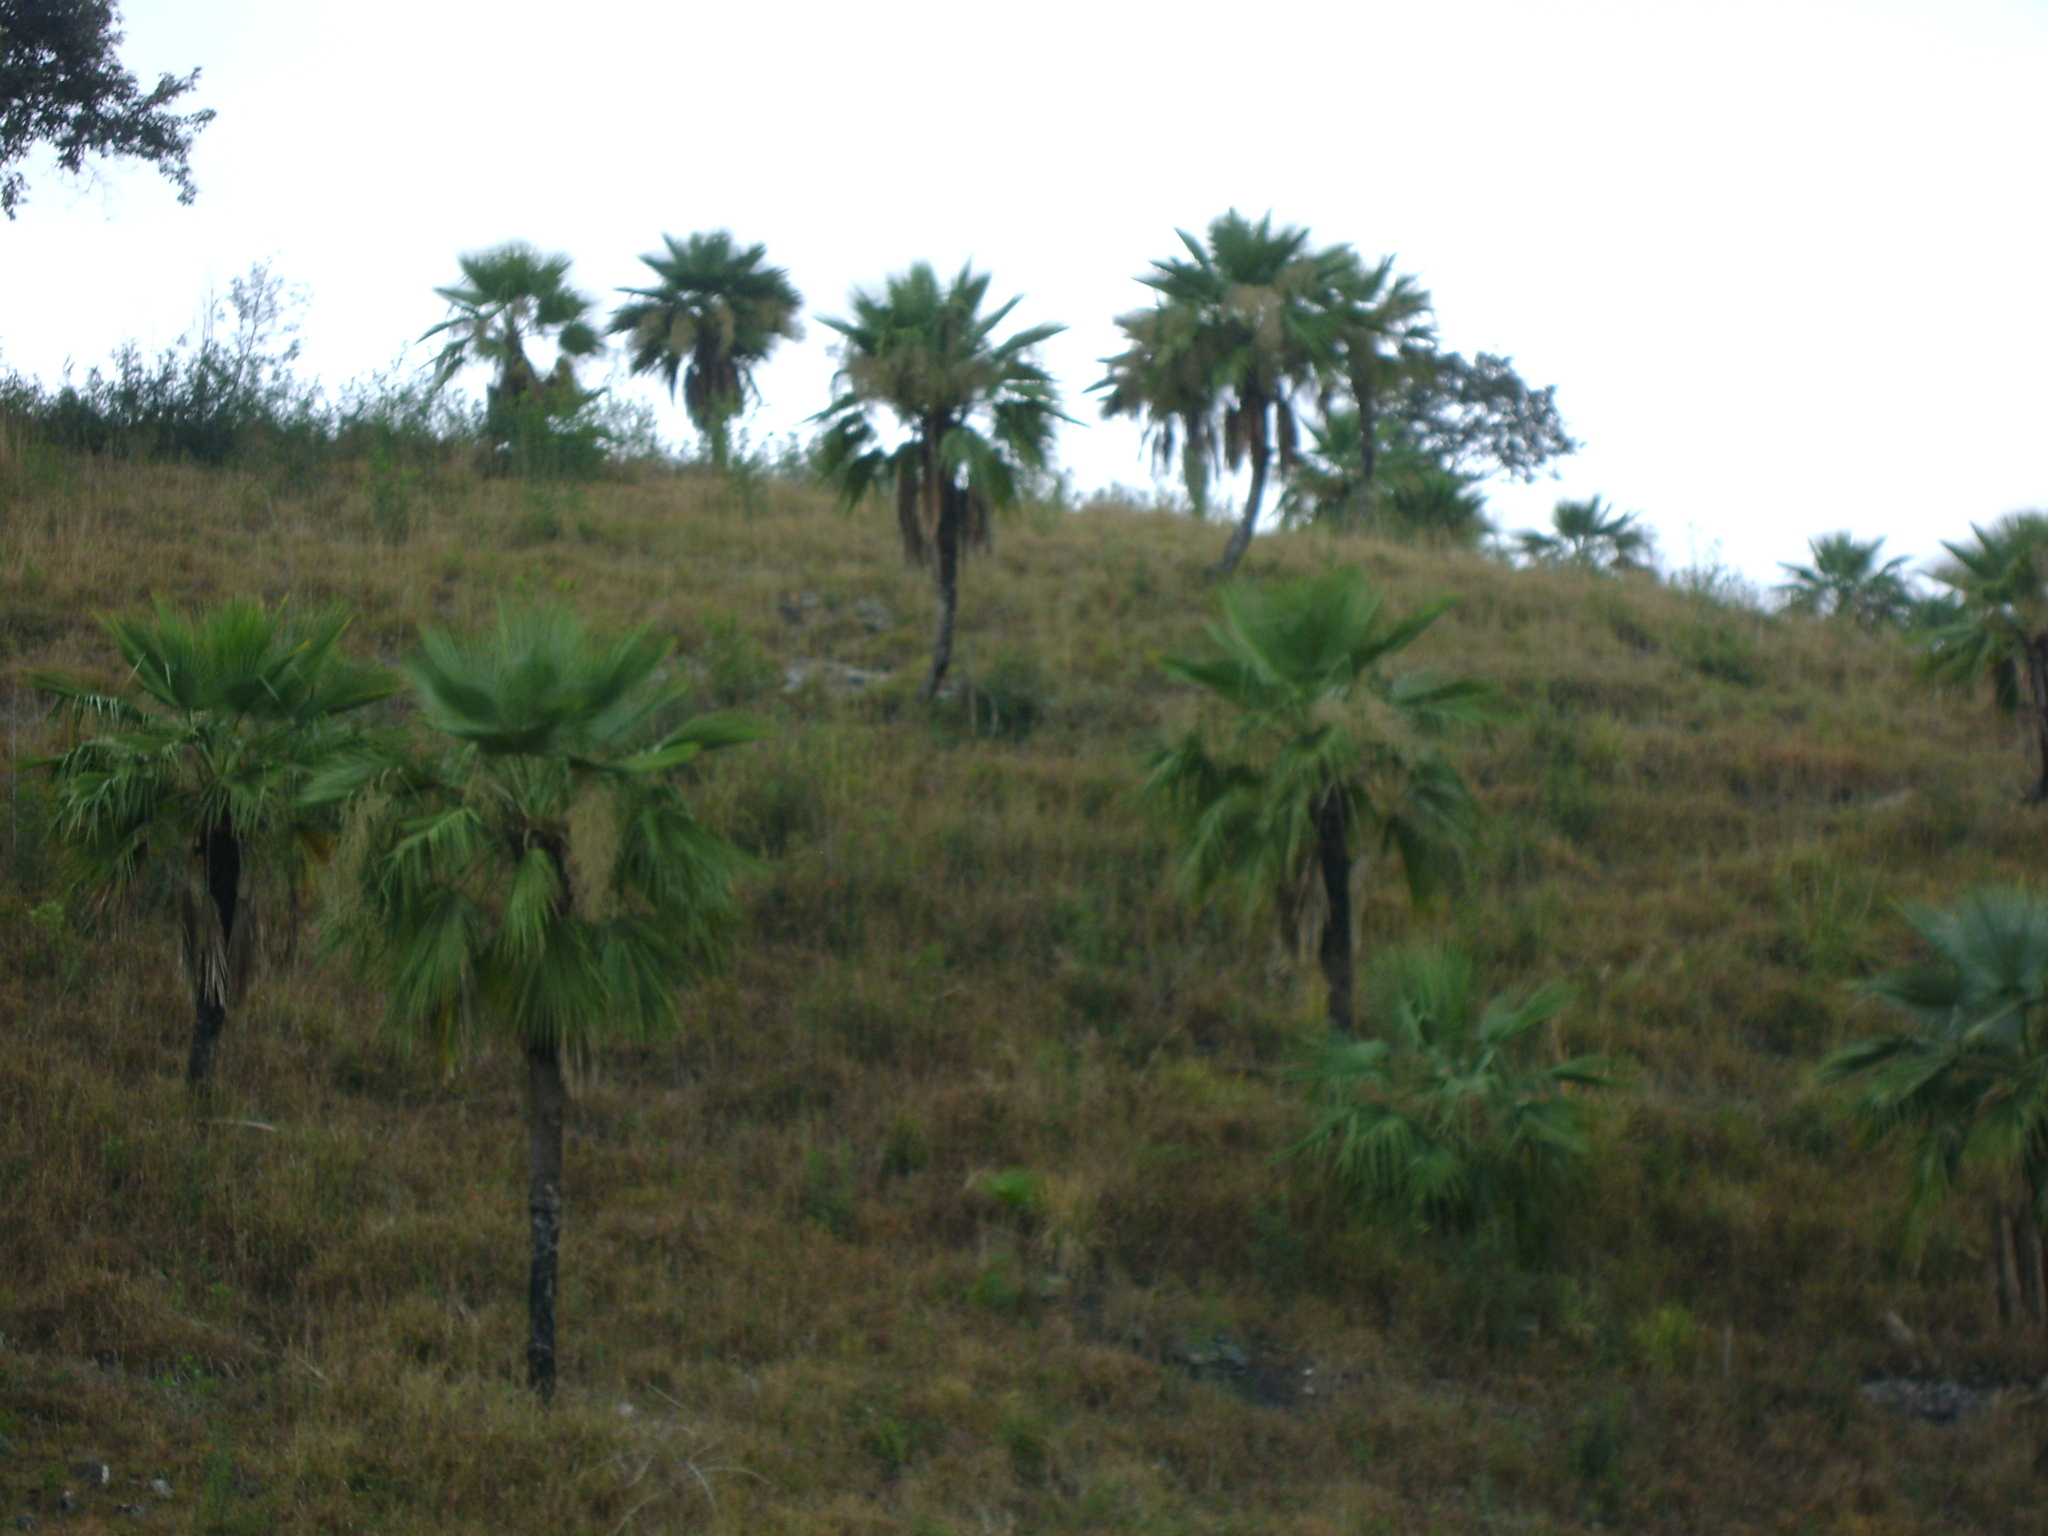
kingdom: Plantae
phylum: Tracheophyta
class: Liliopsida
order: Arecales
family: Arecaceae
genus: Brahea
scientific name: Brahea dulcis
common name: Apak palm
